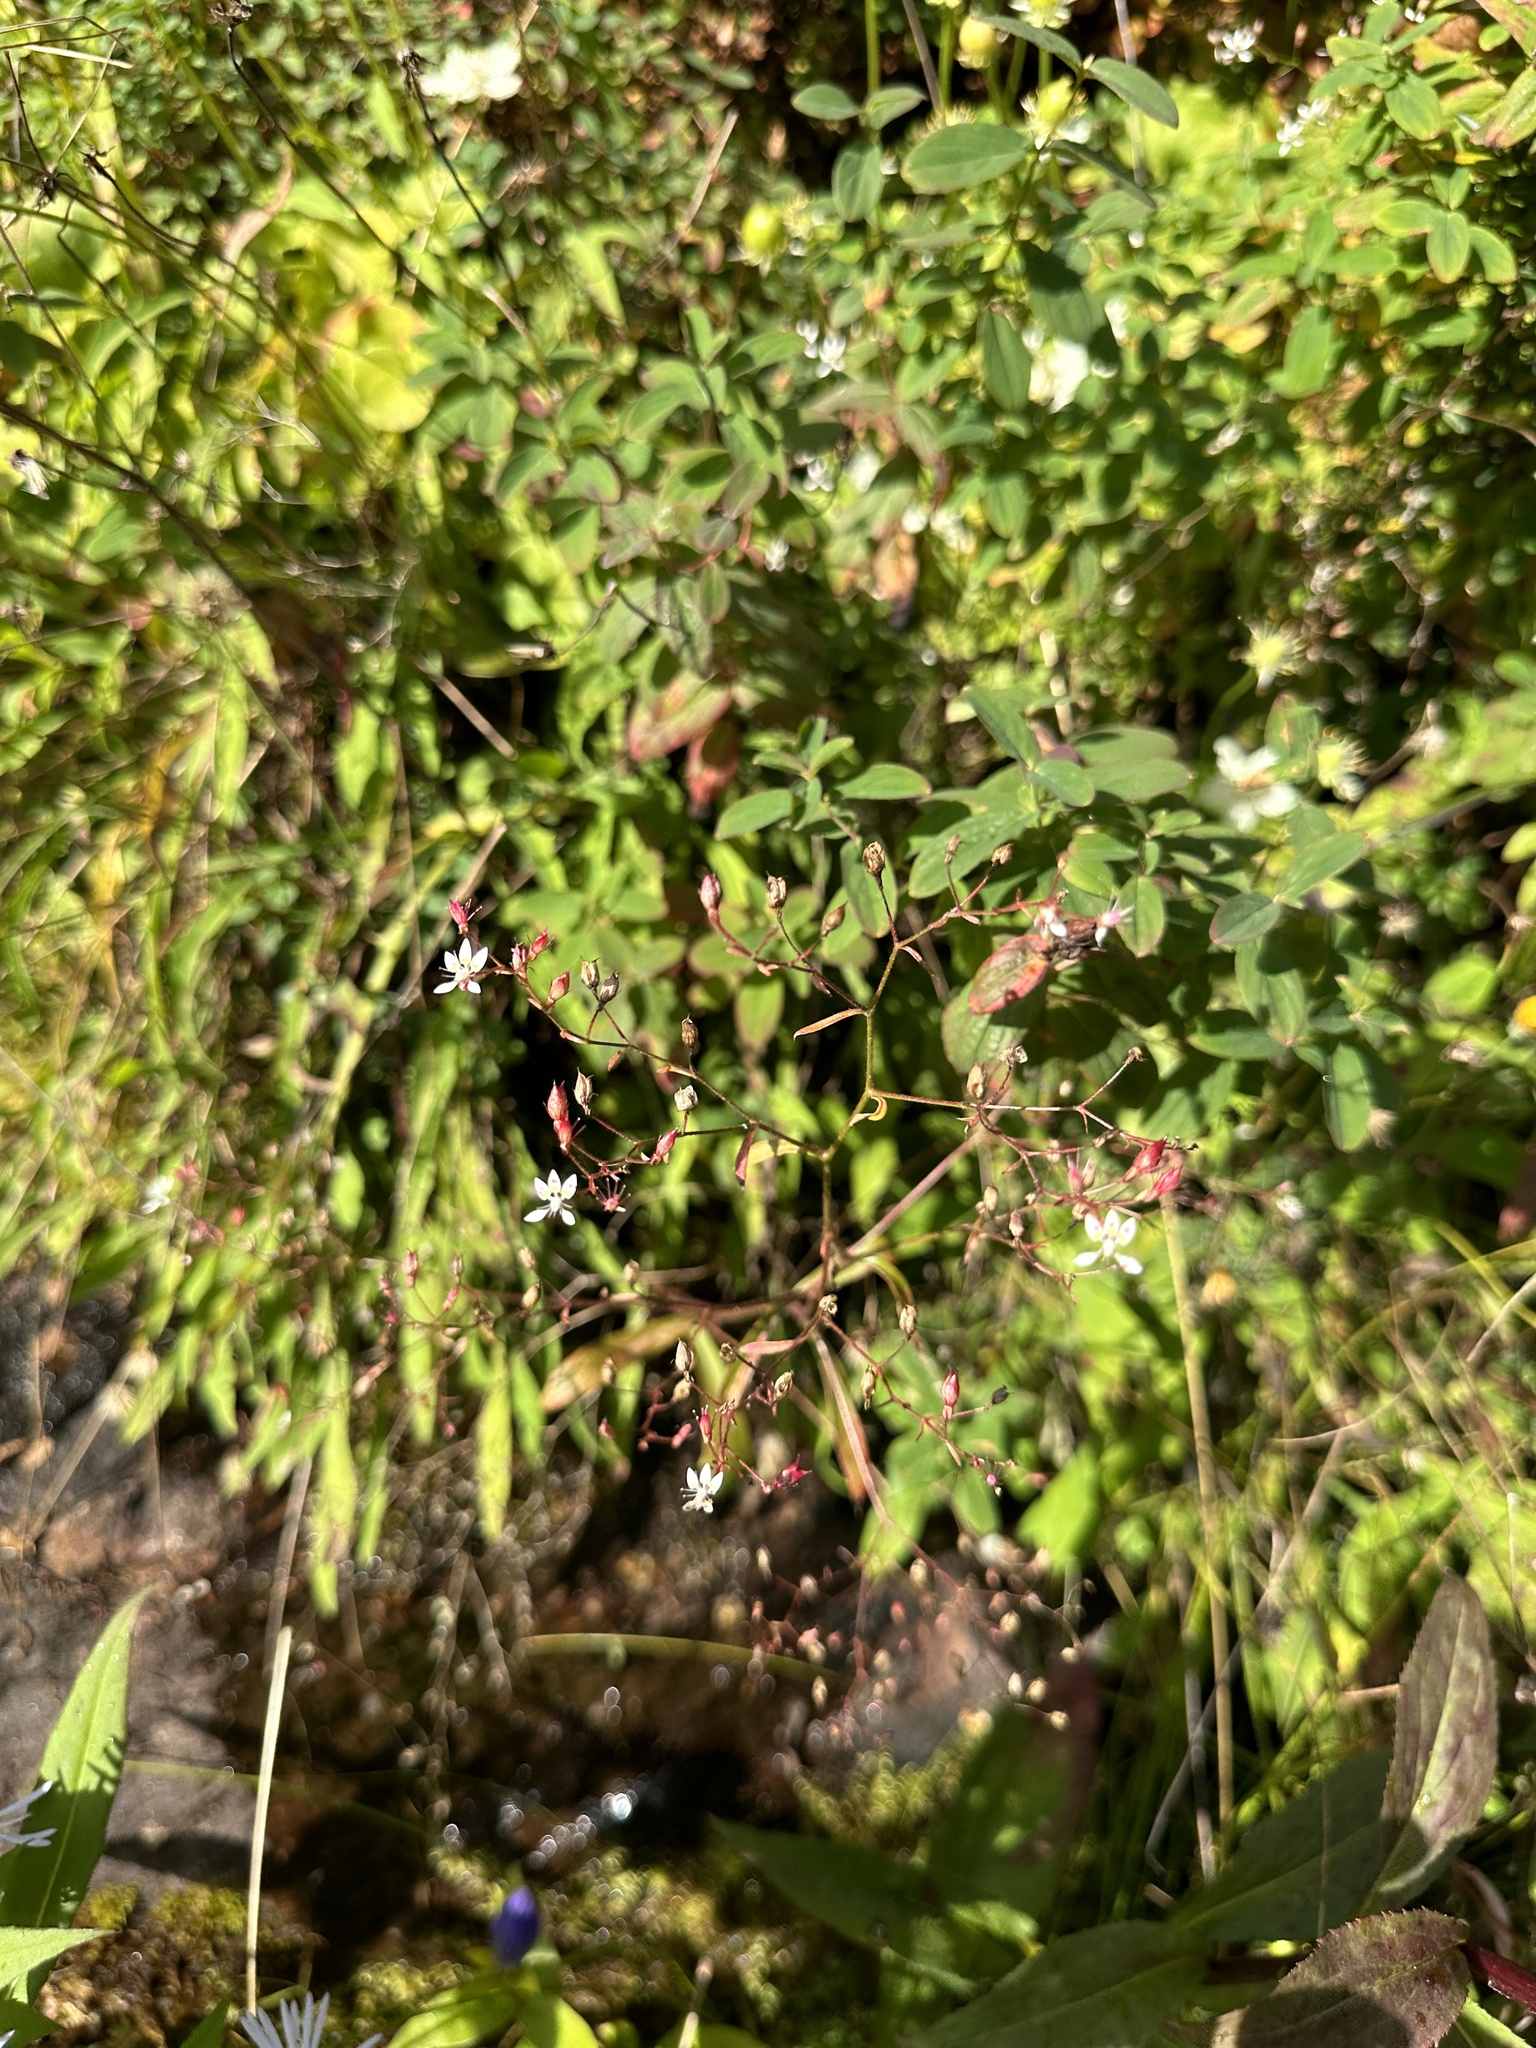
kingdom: Plantae
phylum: Tracheophyta
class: Magnoliopsida
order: Saxifragales
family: Saxifragaceae
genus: Micranthes
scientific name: Micranthes petiolaris
